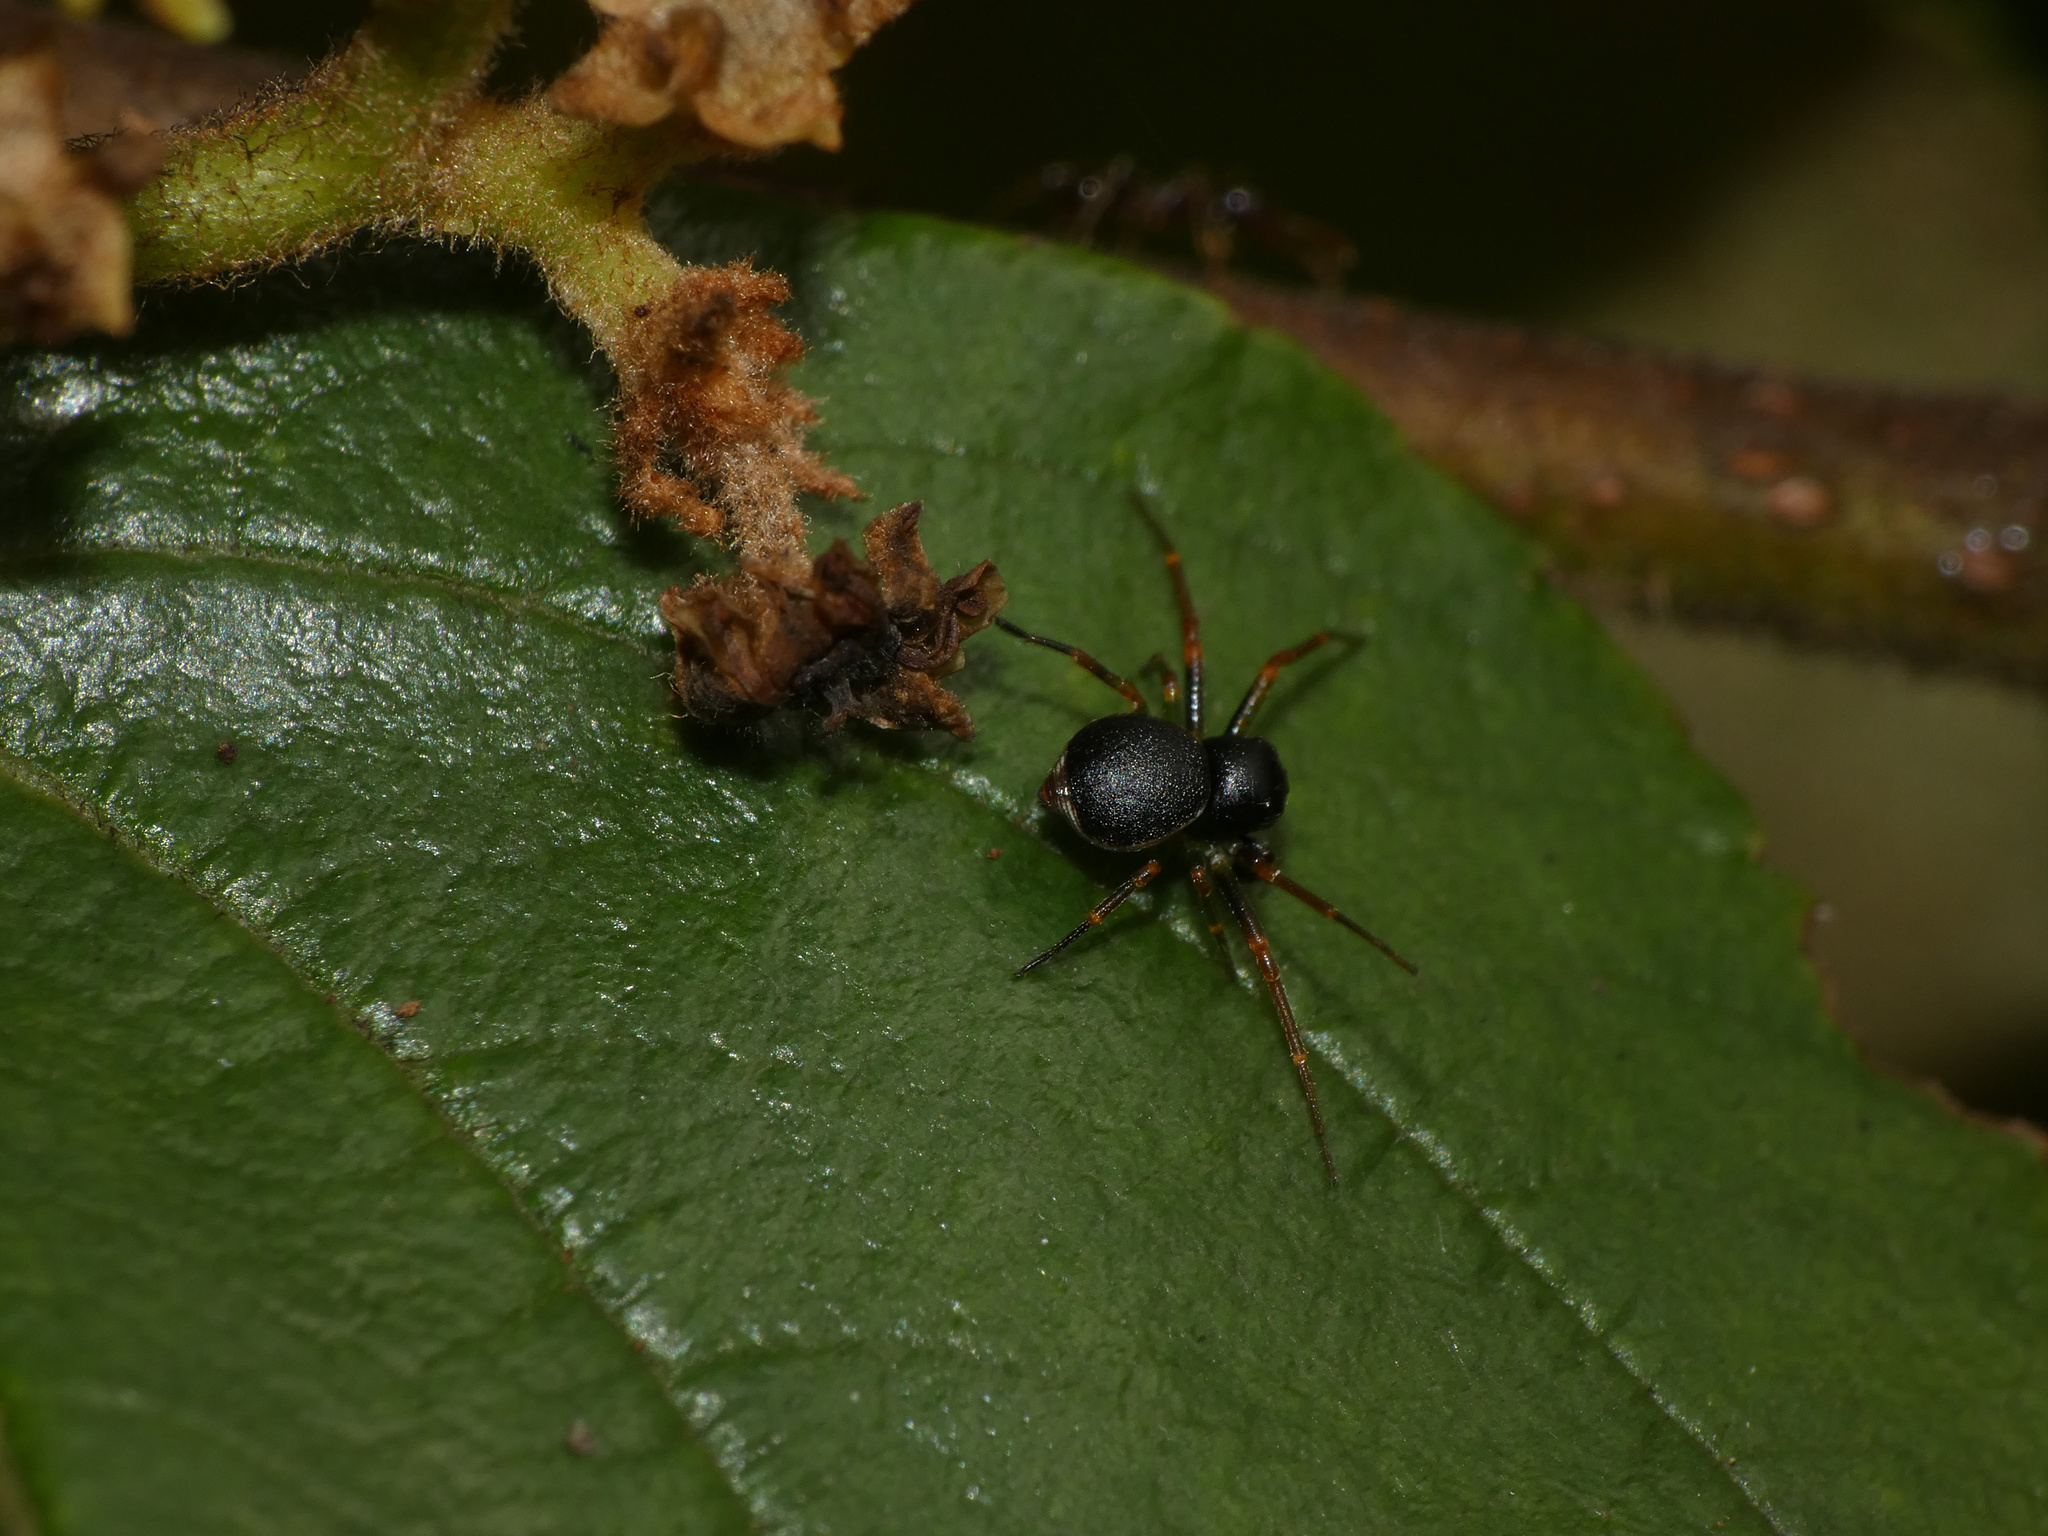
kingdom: Animalia
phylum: Arthropoda
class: Arachnida
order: Araneae
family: Thomisidae
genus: Mystaria
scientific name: Mystaria savannensis
